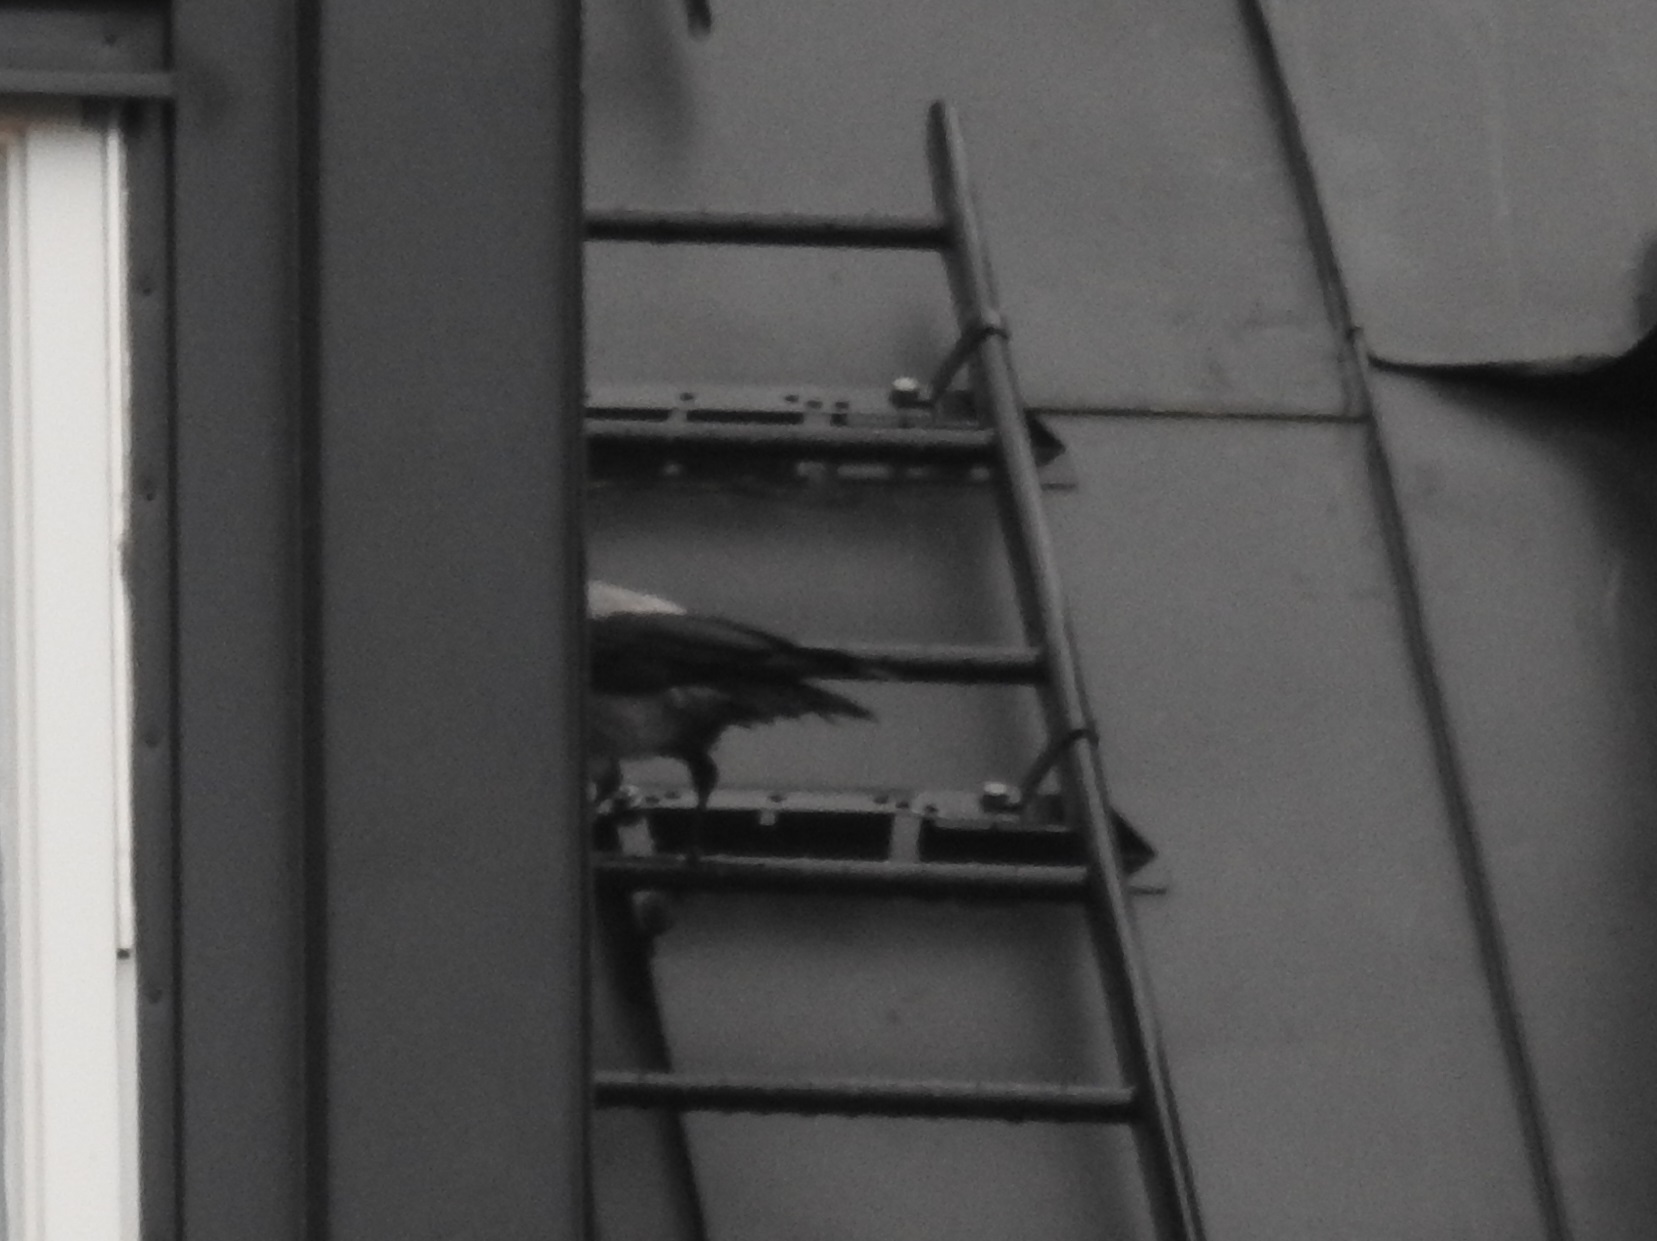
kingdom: Animalia
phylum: Chordata
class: Aves
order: Passeriformes
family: Corvidae
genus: Corvus
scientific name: Corvus cornix
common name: Hooded crow
